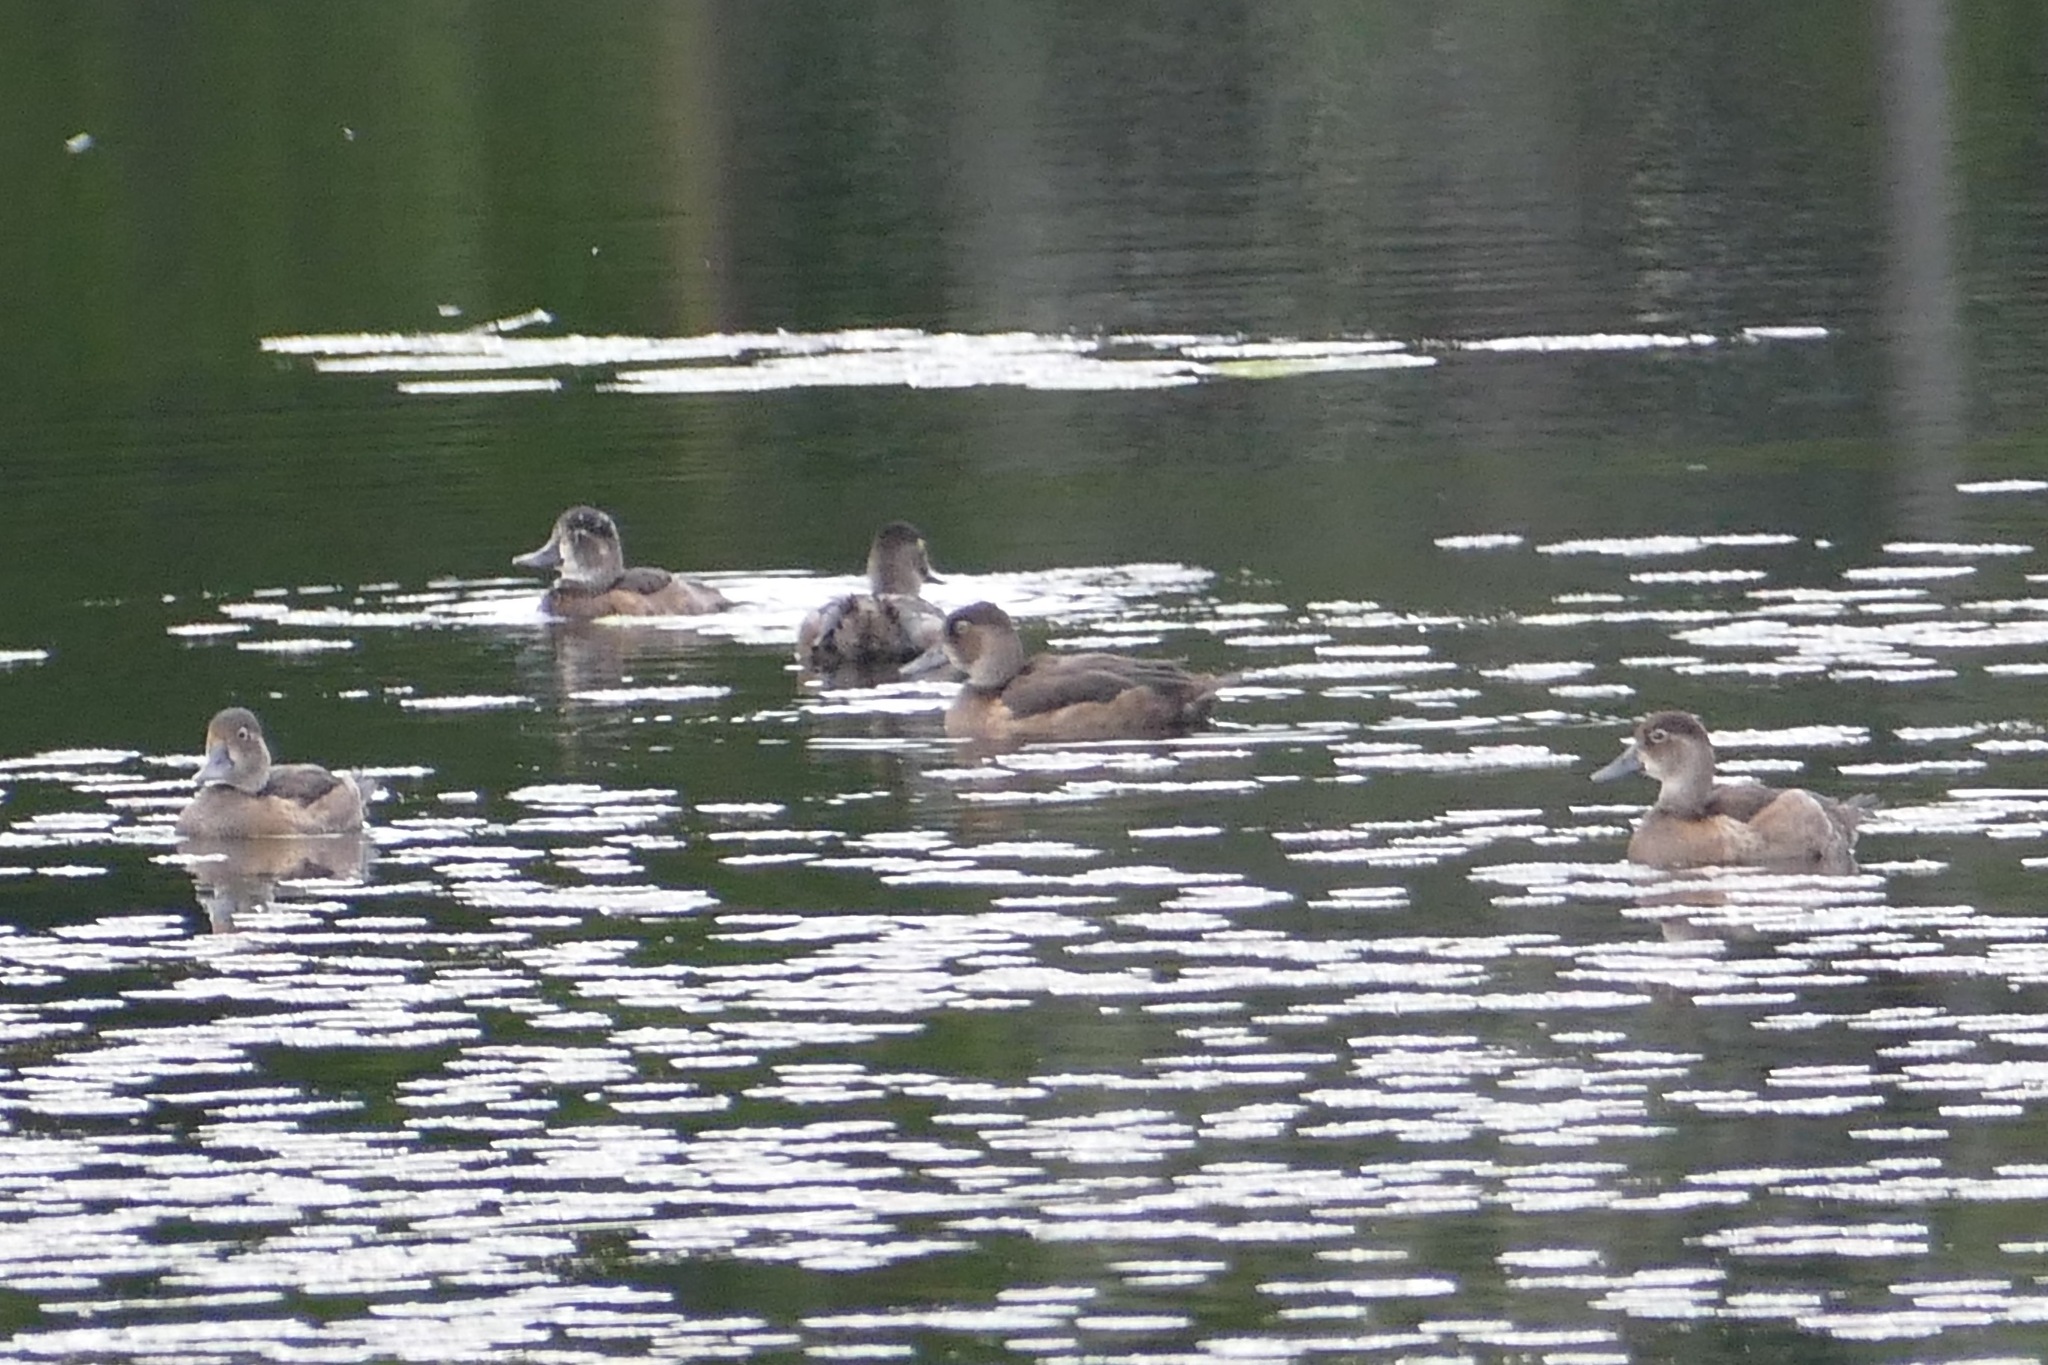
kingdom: Animalia
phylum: Chordata
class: Aves
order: Anseriformes
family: Anatidae
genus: Aythya
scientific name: Aythya collaris
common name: Ring-necked duck
